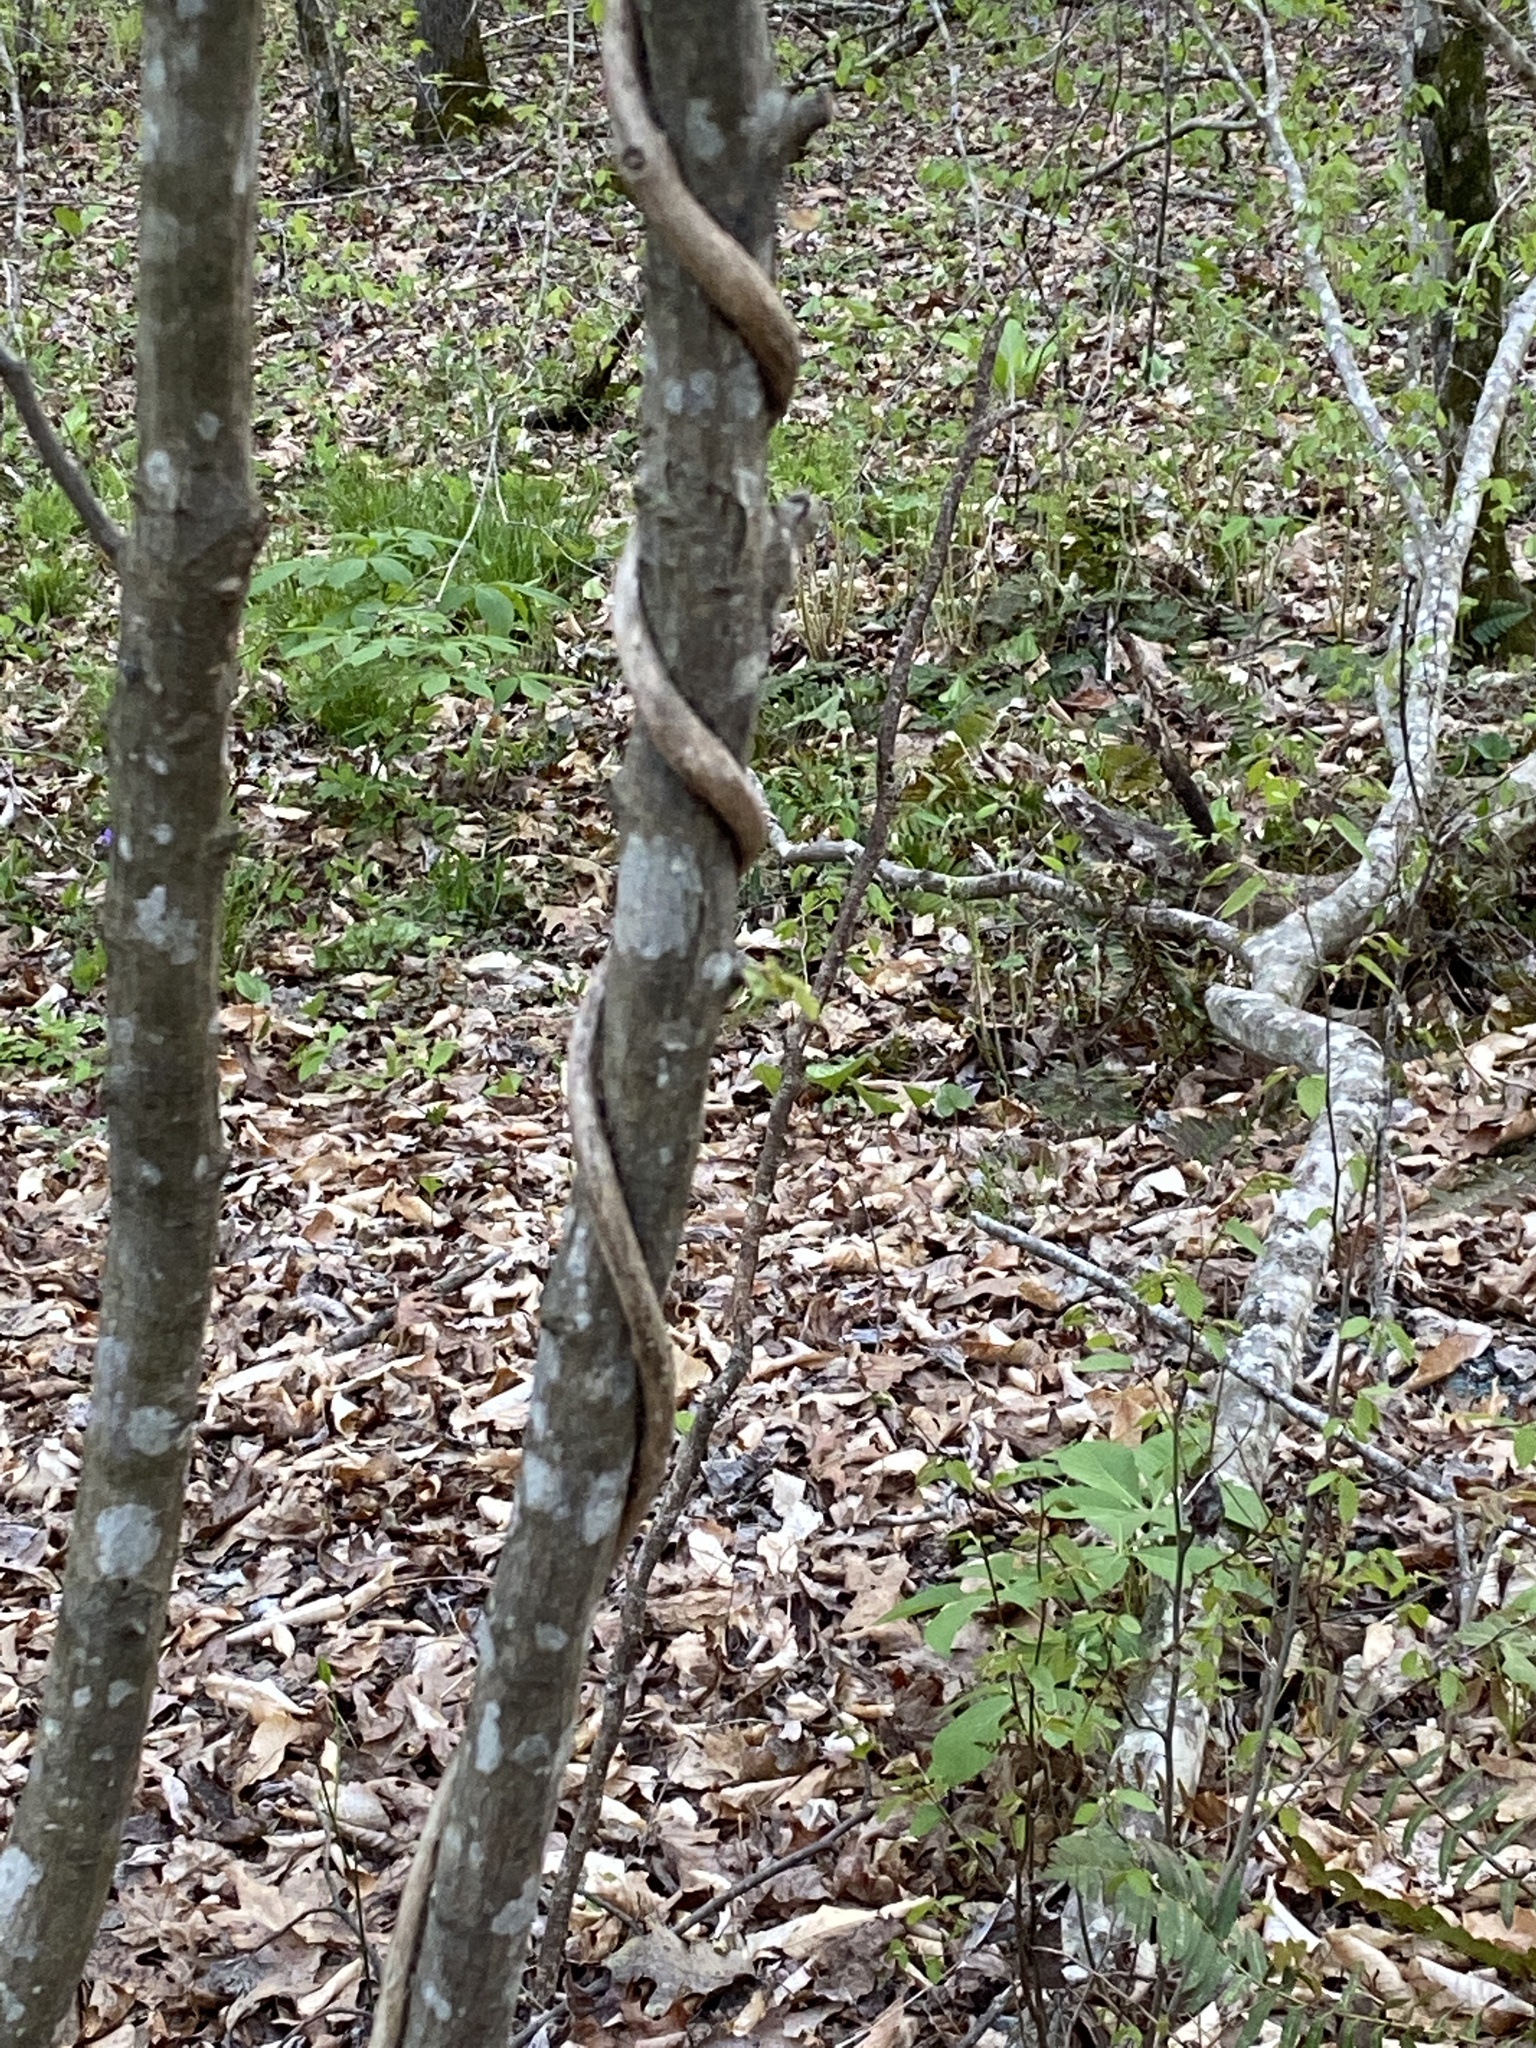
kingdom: Plantae
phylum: Tracheophyta
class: Magnoliopsida
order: Dipsacales
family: Caprifoliaceae
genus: Lonicera
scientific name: Lonicera sempervirens
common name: Coral honeysuckle
